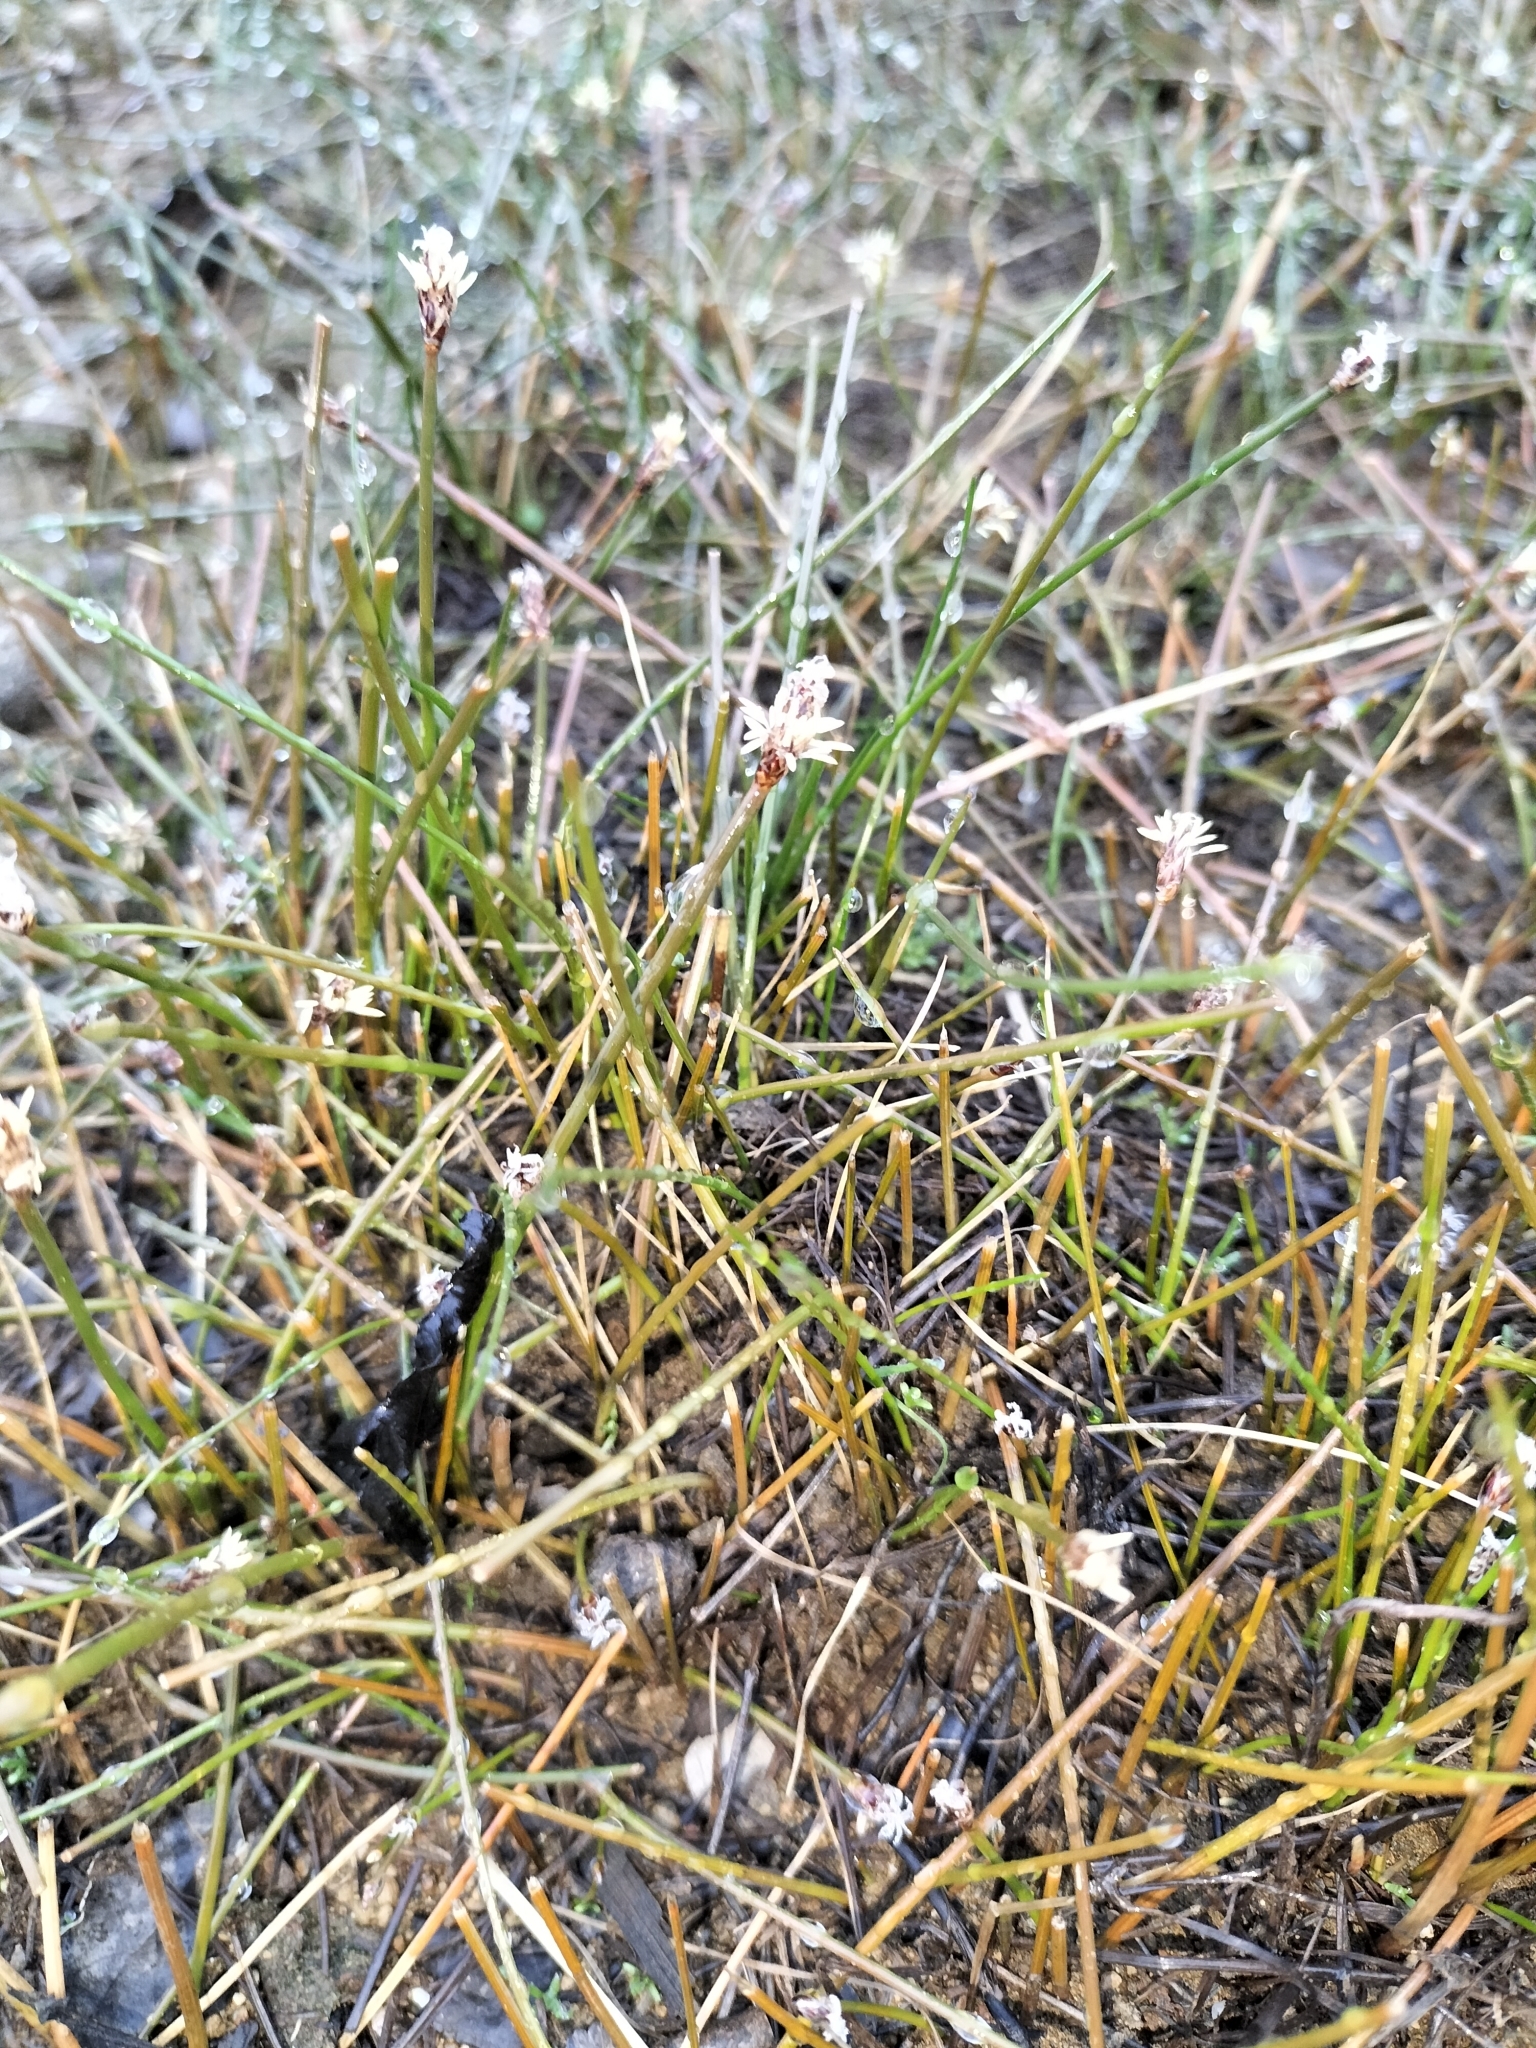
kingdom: Plantae
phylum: Tracheophyta
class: Liliopsida
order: Poales
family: Cyperaceae
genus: Eleocharis
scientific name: Eleocharis acuta
